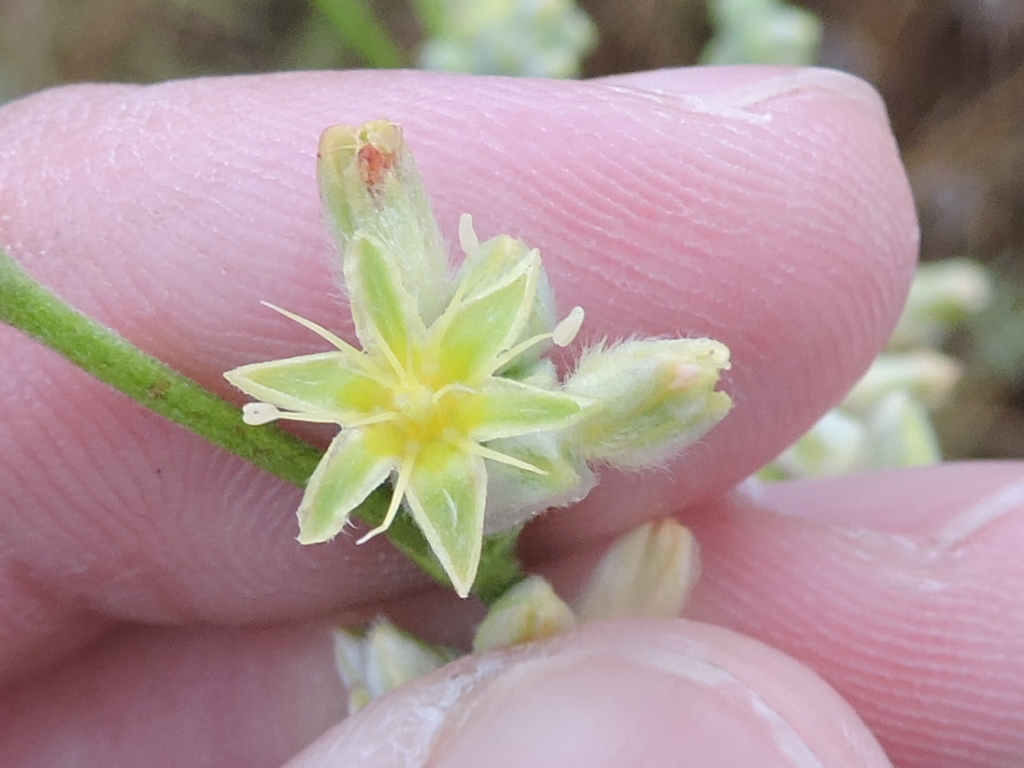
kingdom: Plantae
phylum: Tracheophyta
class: Magnoliopsida
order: Caryophyllales
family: Polygonaceae
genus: Eriogonum
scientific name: Eriogonum longifolium
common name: Longleaf wild buckwheat
